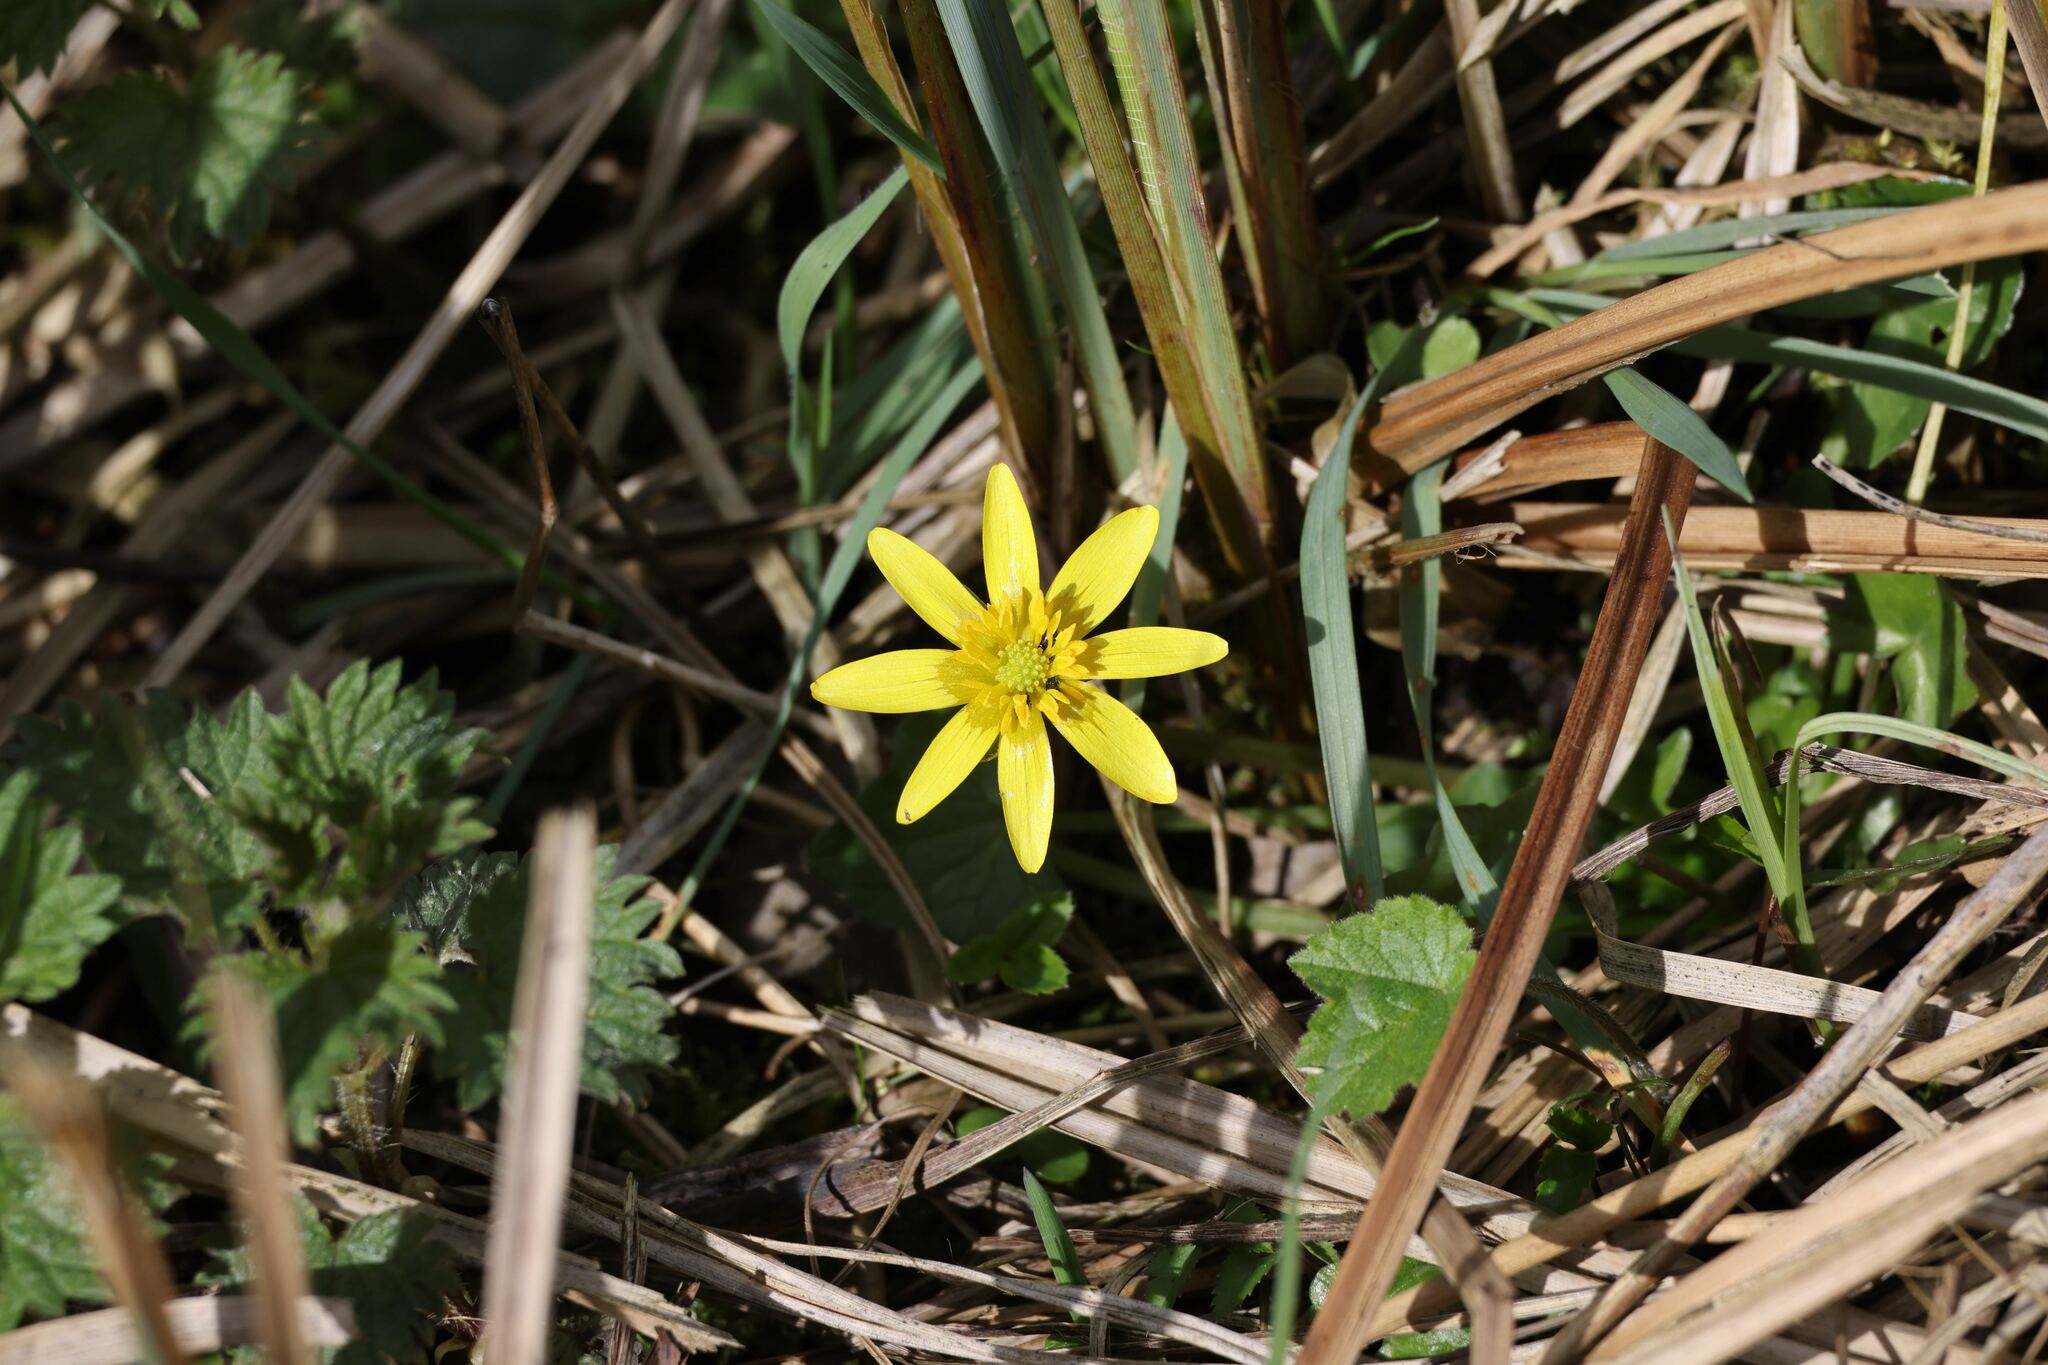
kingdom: Plantae
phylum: Tracheophyta
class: Magnoliopsida
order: Ranunculales
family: Ranunculaceae
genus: Ficaria
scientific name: Ficaria verna
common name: Lesser celandine
